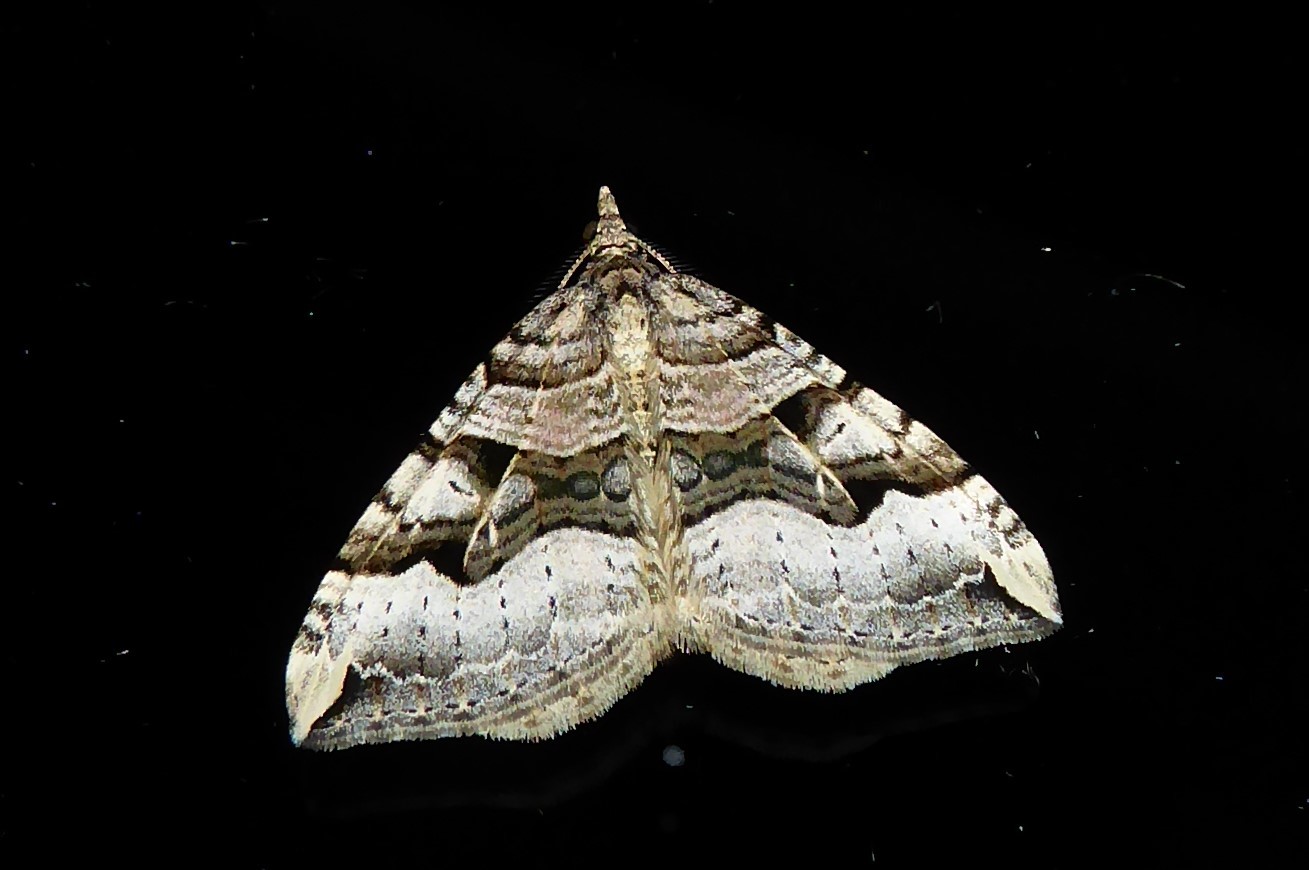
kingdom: Animalia
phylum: Arthropoda
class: Insecta
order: Lepidoptera
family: Geometridae
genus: Xanthorhoe
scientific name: Xanthorhoe semifissata
